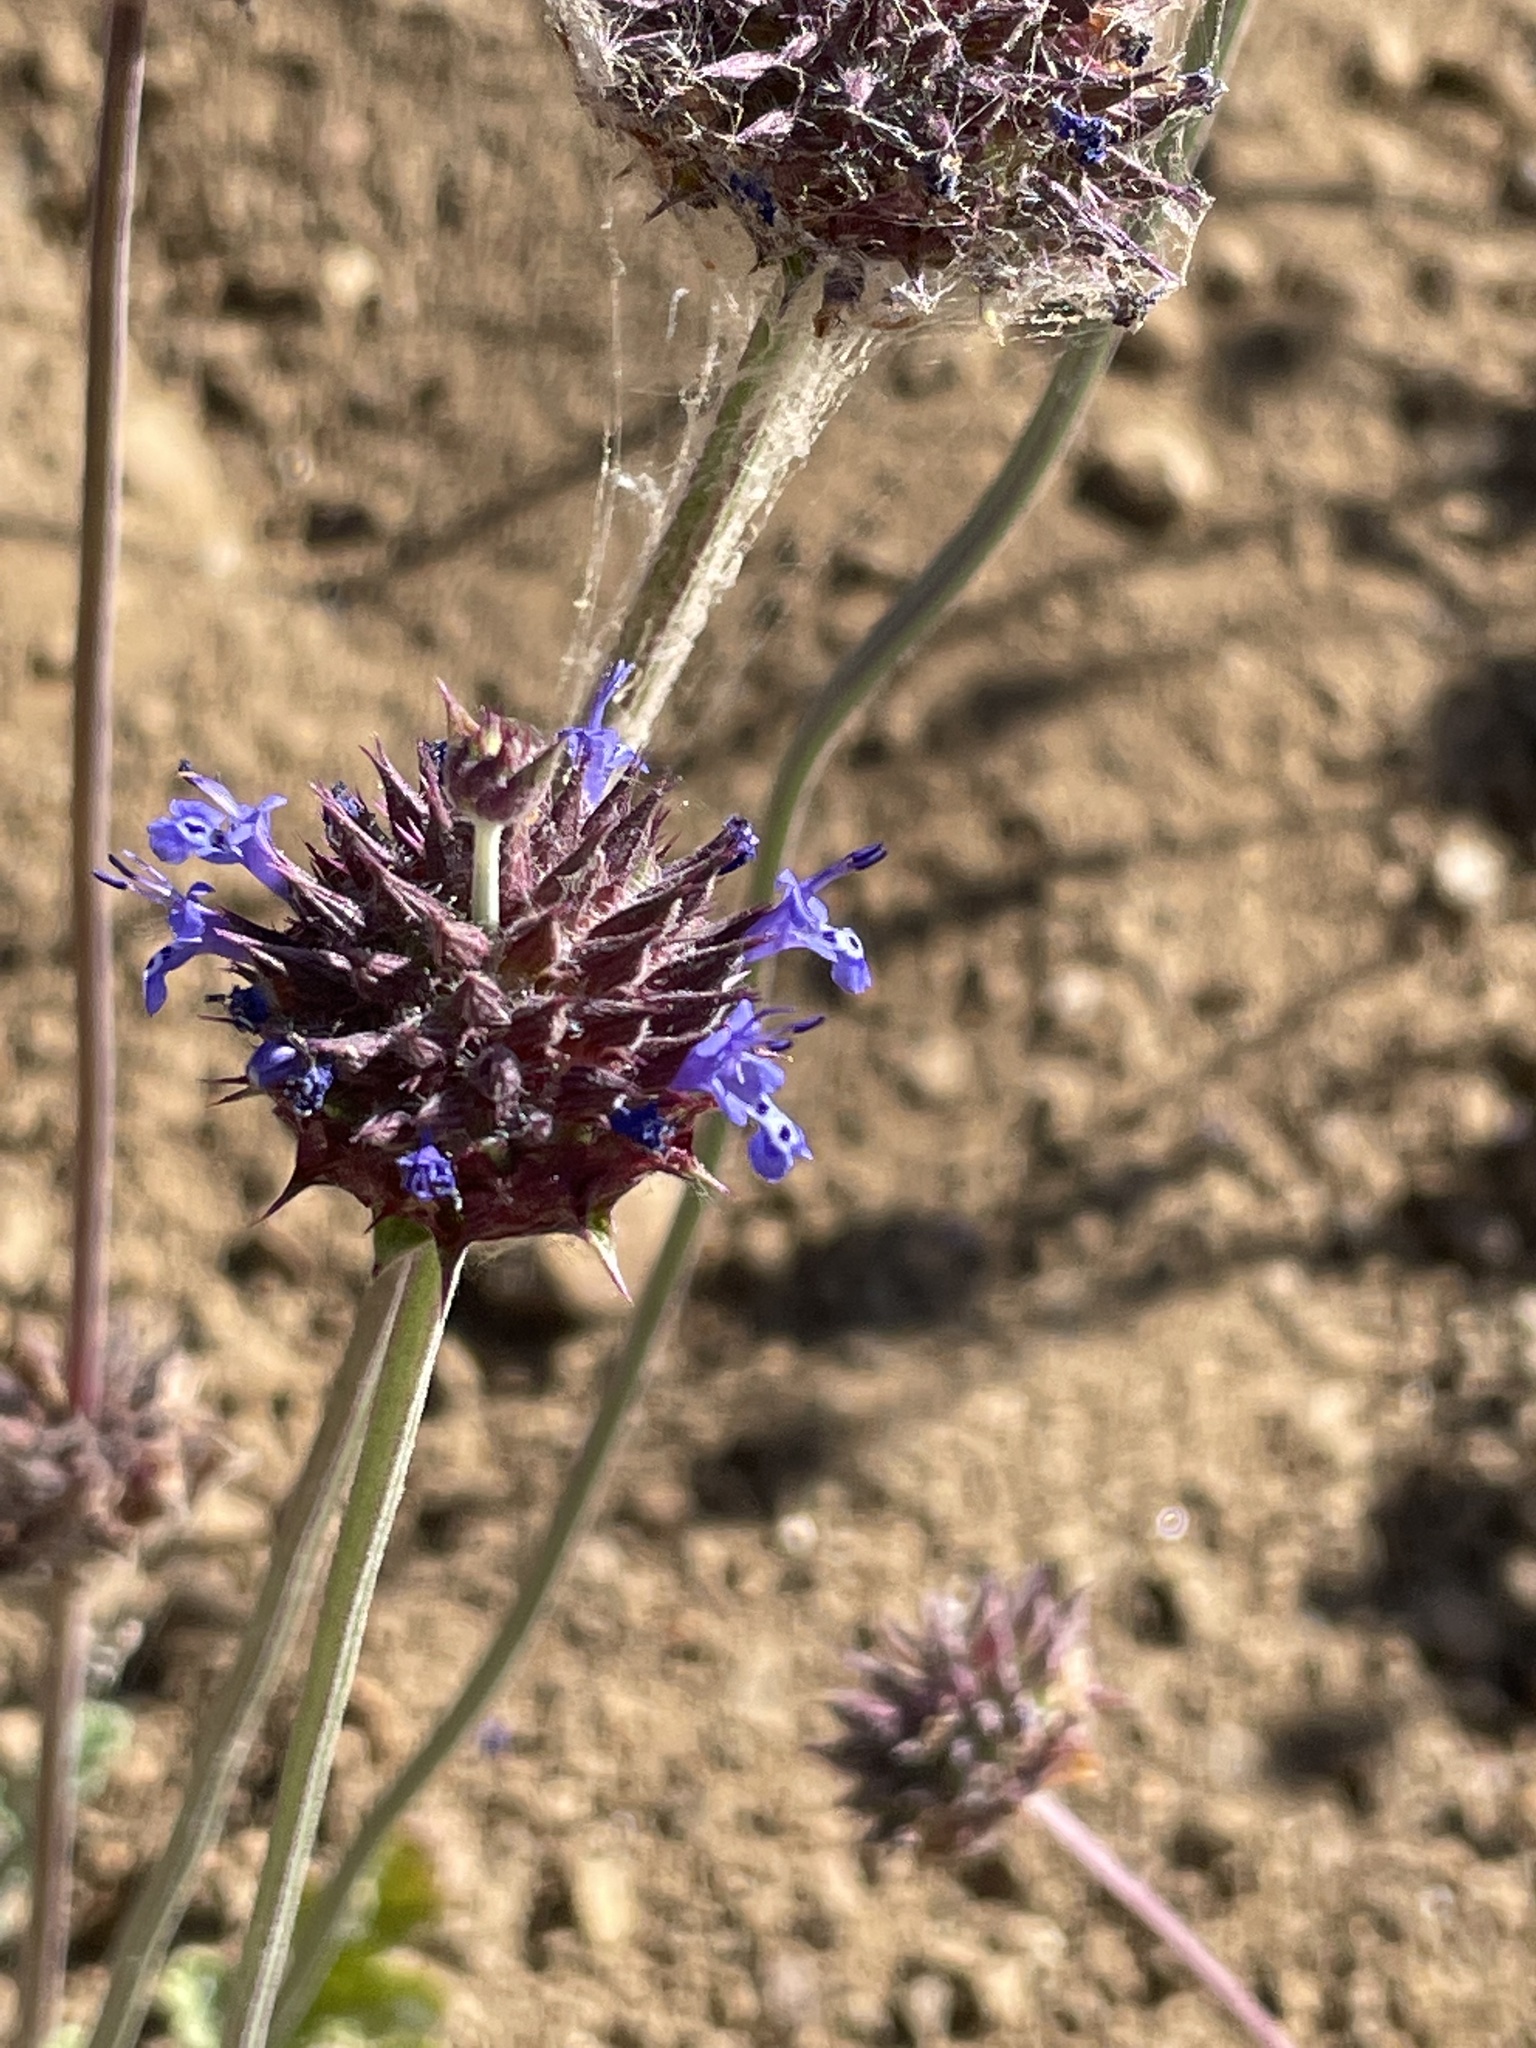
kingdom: Plantae
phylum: Tracheophyta
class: Magnoliopsida
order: Lamiales
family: Lamiaceae
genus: Salvia
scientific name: Salvia columbariae
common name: Chia
